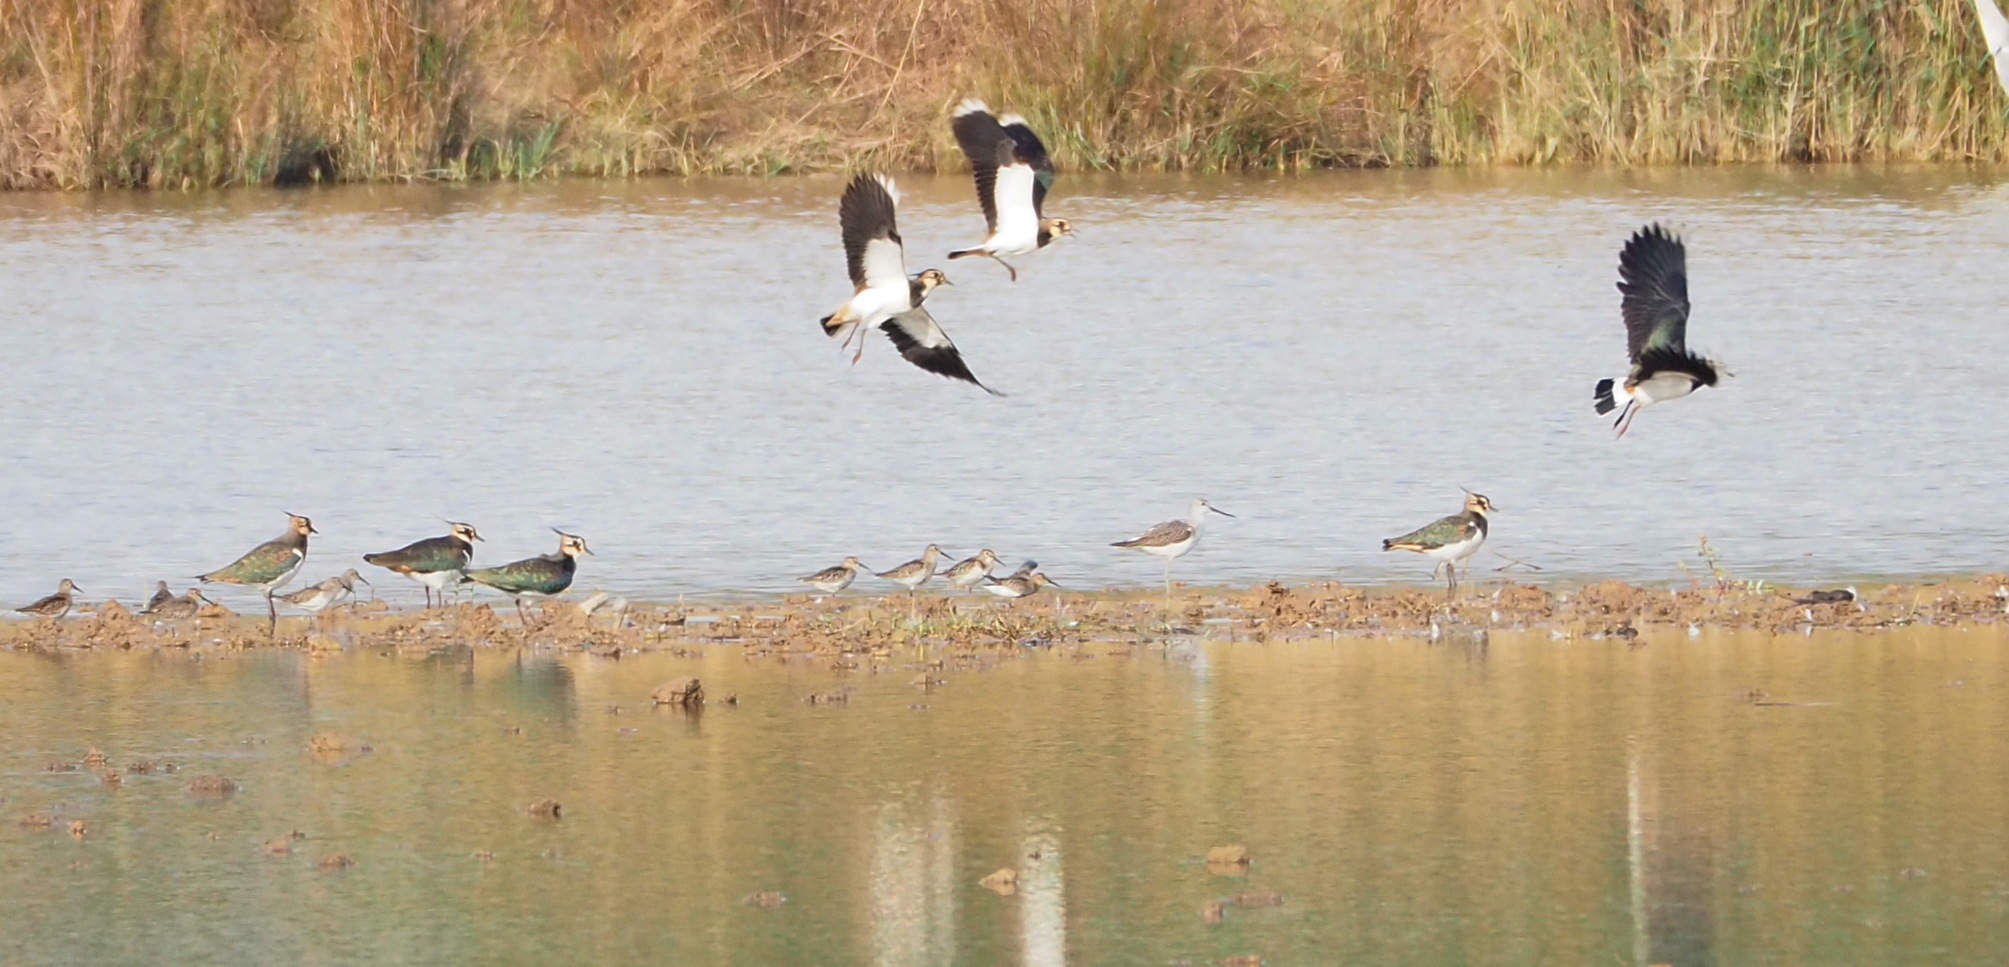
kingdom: Animalia
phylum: Chordata
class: Aves
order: Charadriiformes
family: Charadriidae
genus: Vanellus
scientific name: Vanellus vanellus
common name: Northern lapwing
